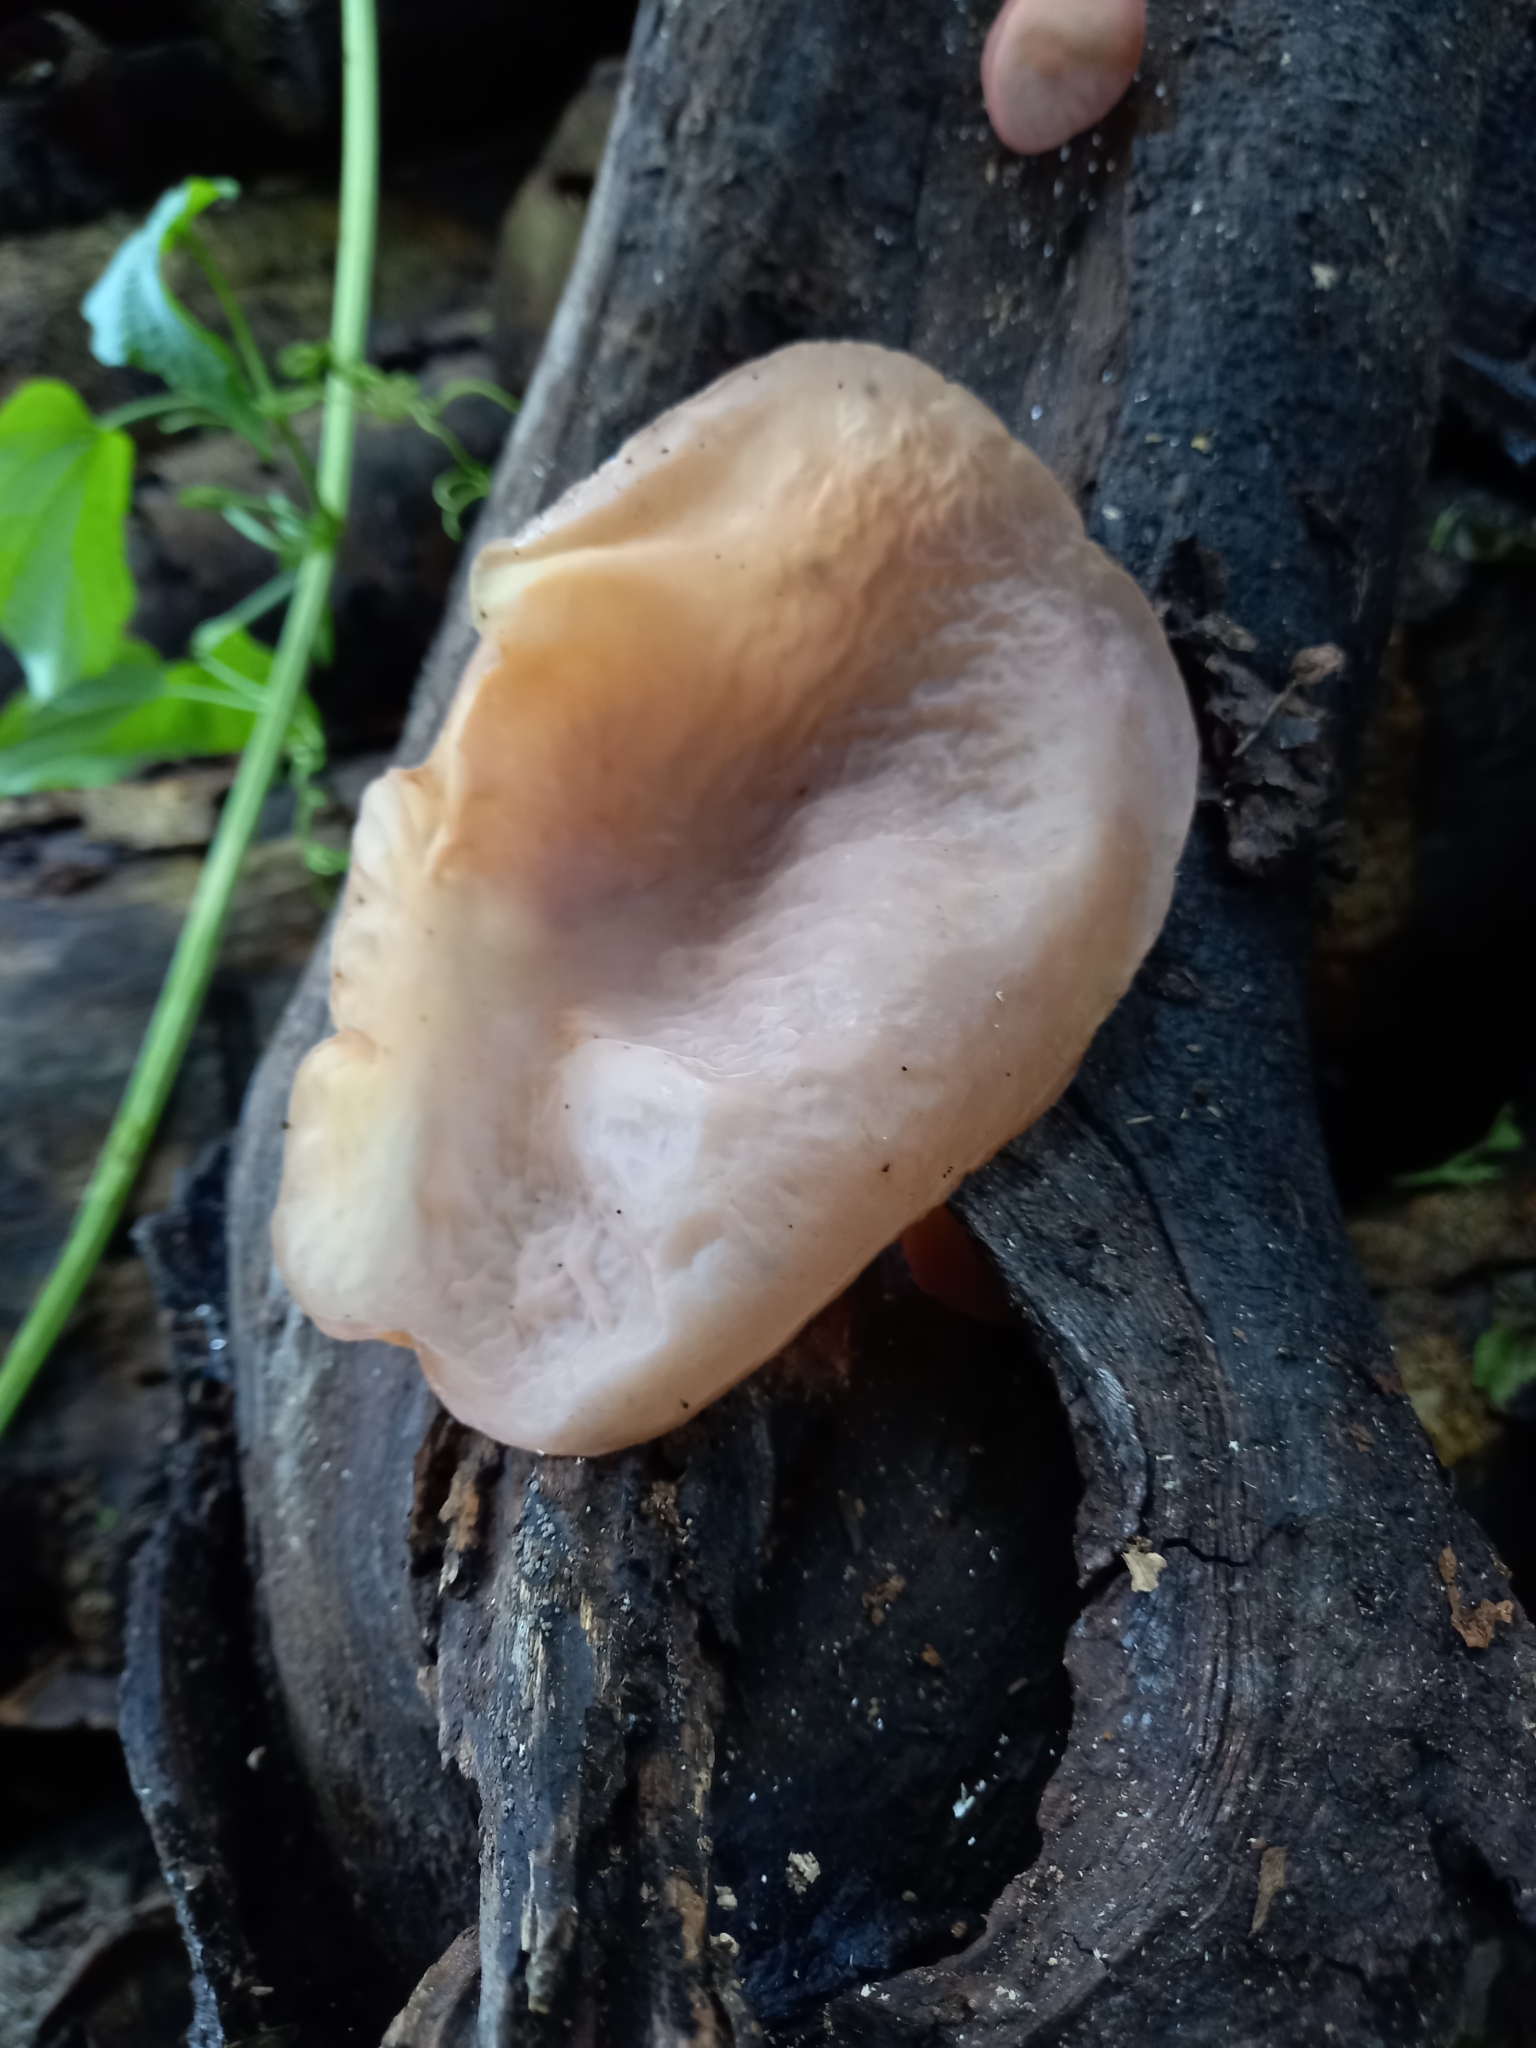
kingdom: Fungi
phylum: Basidiomycota
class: Agaricomycetes
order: Auriculariales
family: Auriculariaceae
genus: Auricularia
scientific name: Auricularia delicata
